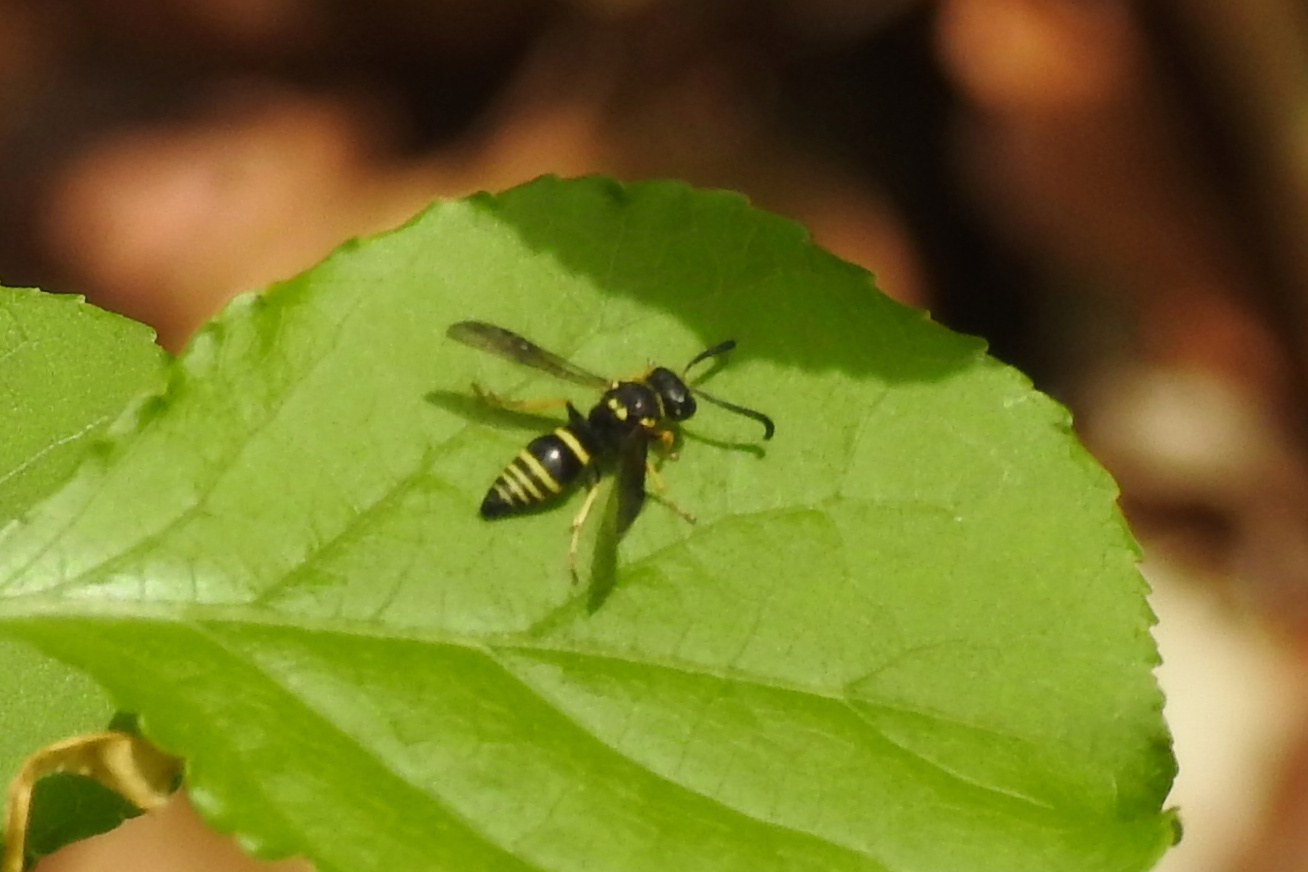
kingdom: Animalia
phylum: Arthropoda
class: Insecta
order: Hymenoptera
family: Vespidae
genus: Ancistrocerus
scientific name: Ancistrocerus
